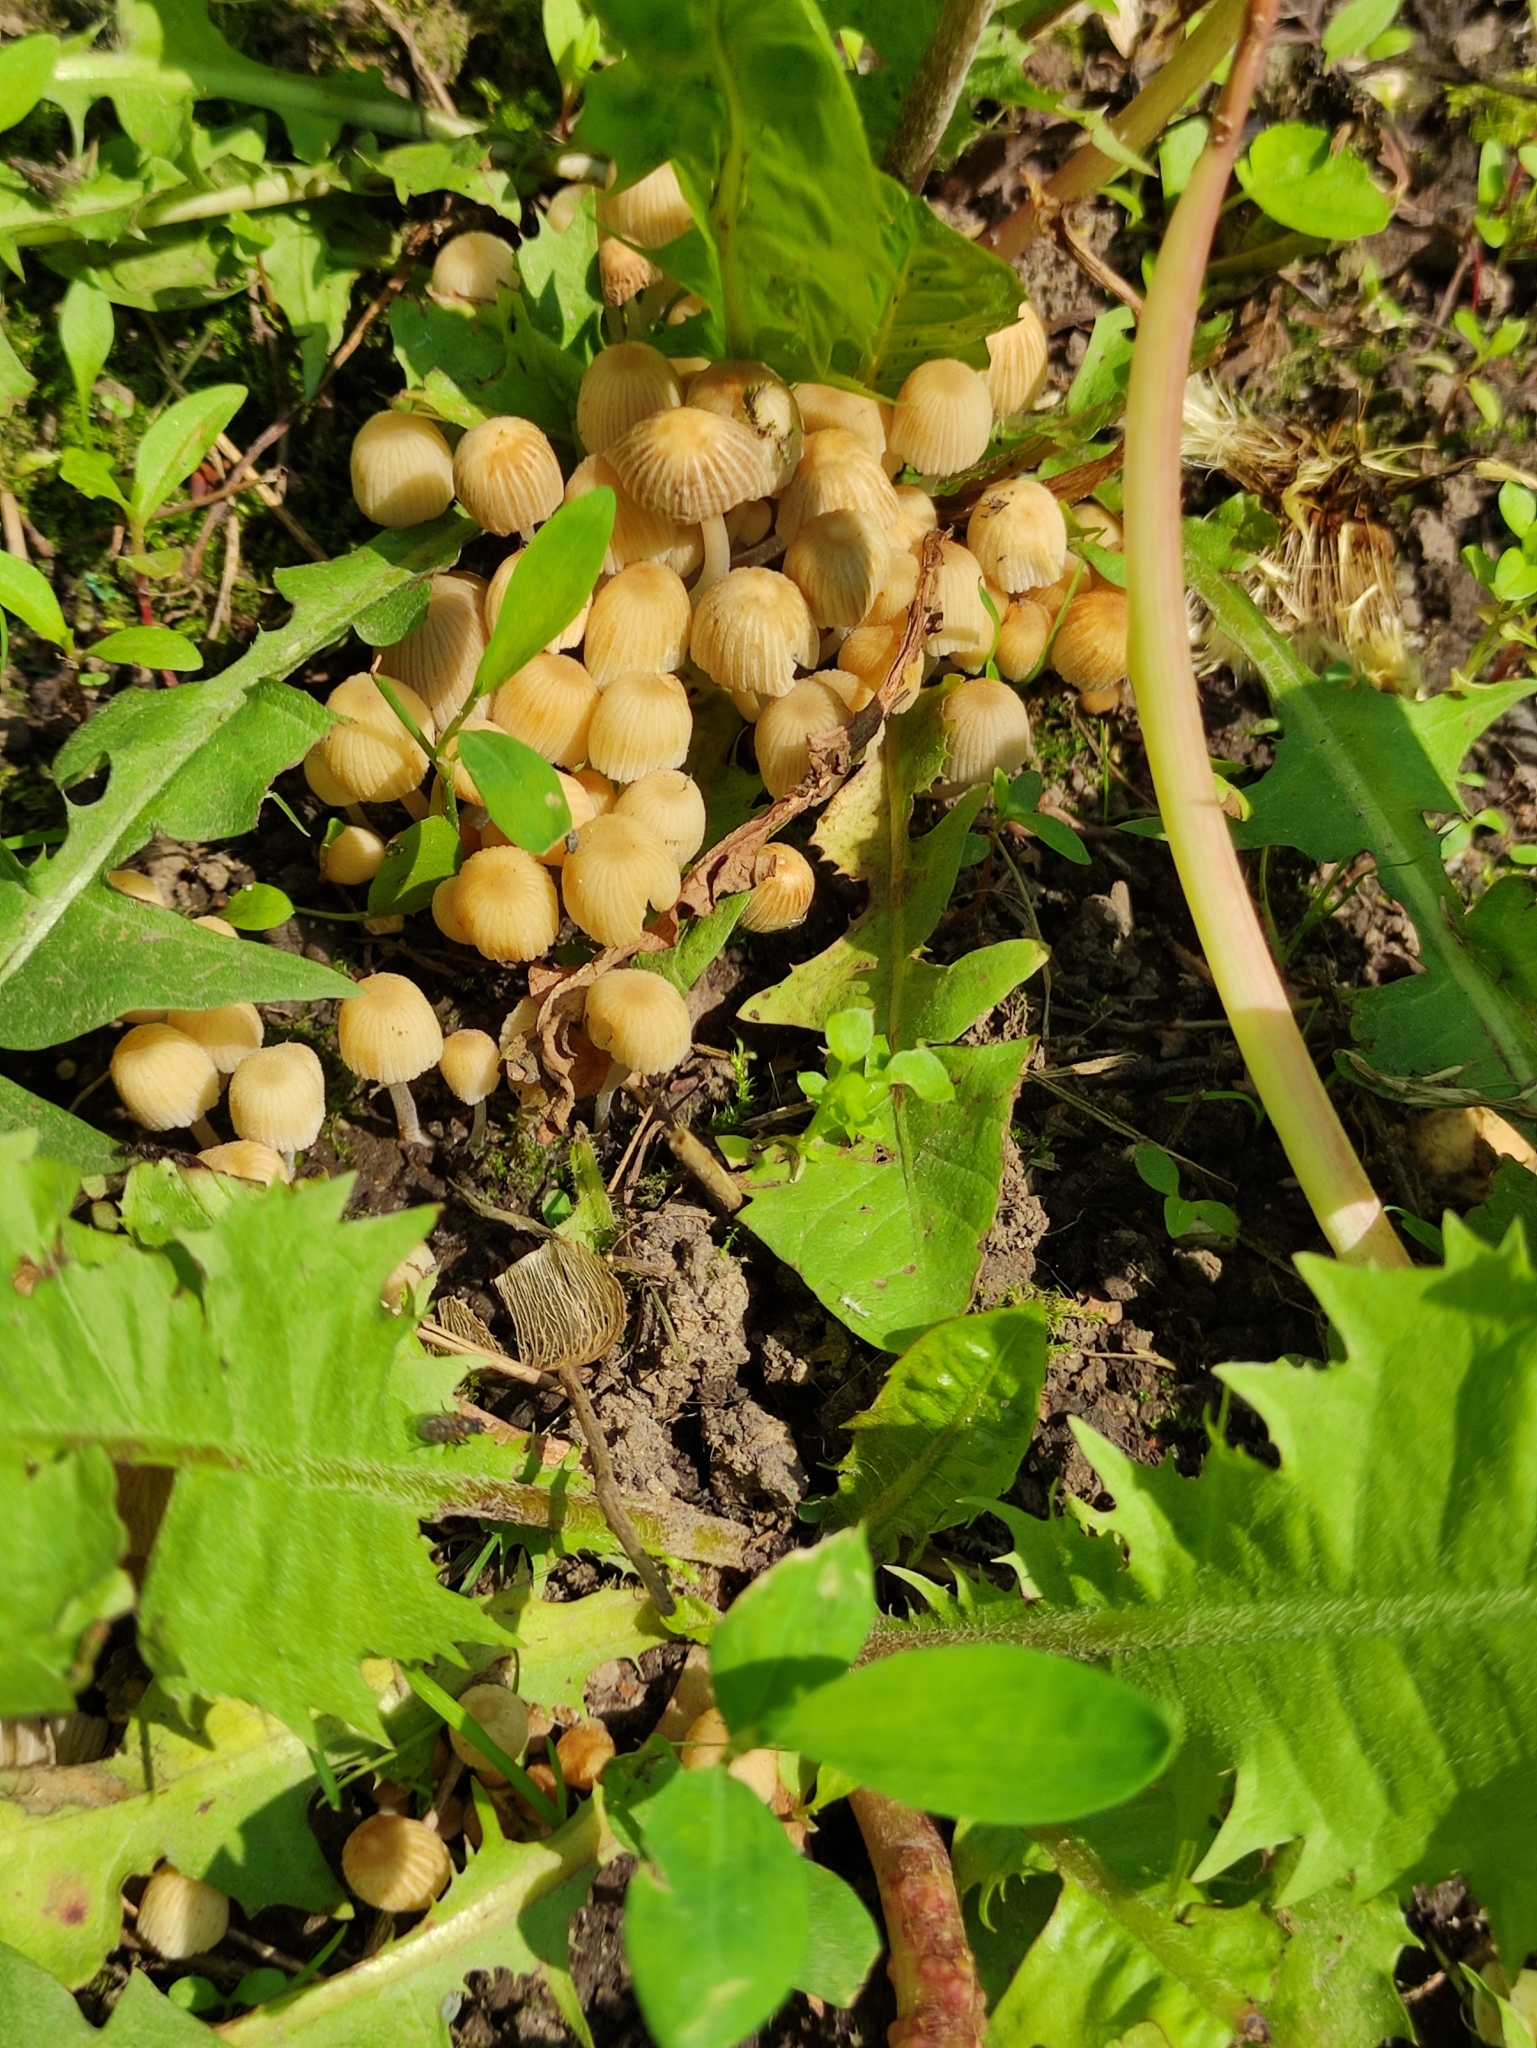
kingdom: Fungi
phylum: Basidiomycota
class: Agaricomycetes
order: Agaricales
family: Psathyrellaceae
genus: Coprinellus
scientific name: Coprinellus disseminatus
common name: Fairies' bonnets
